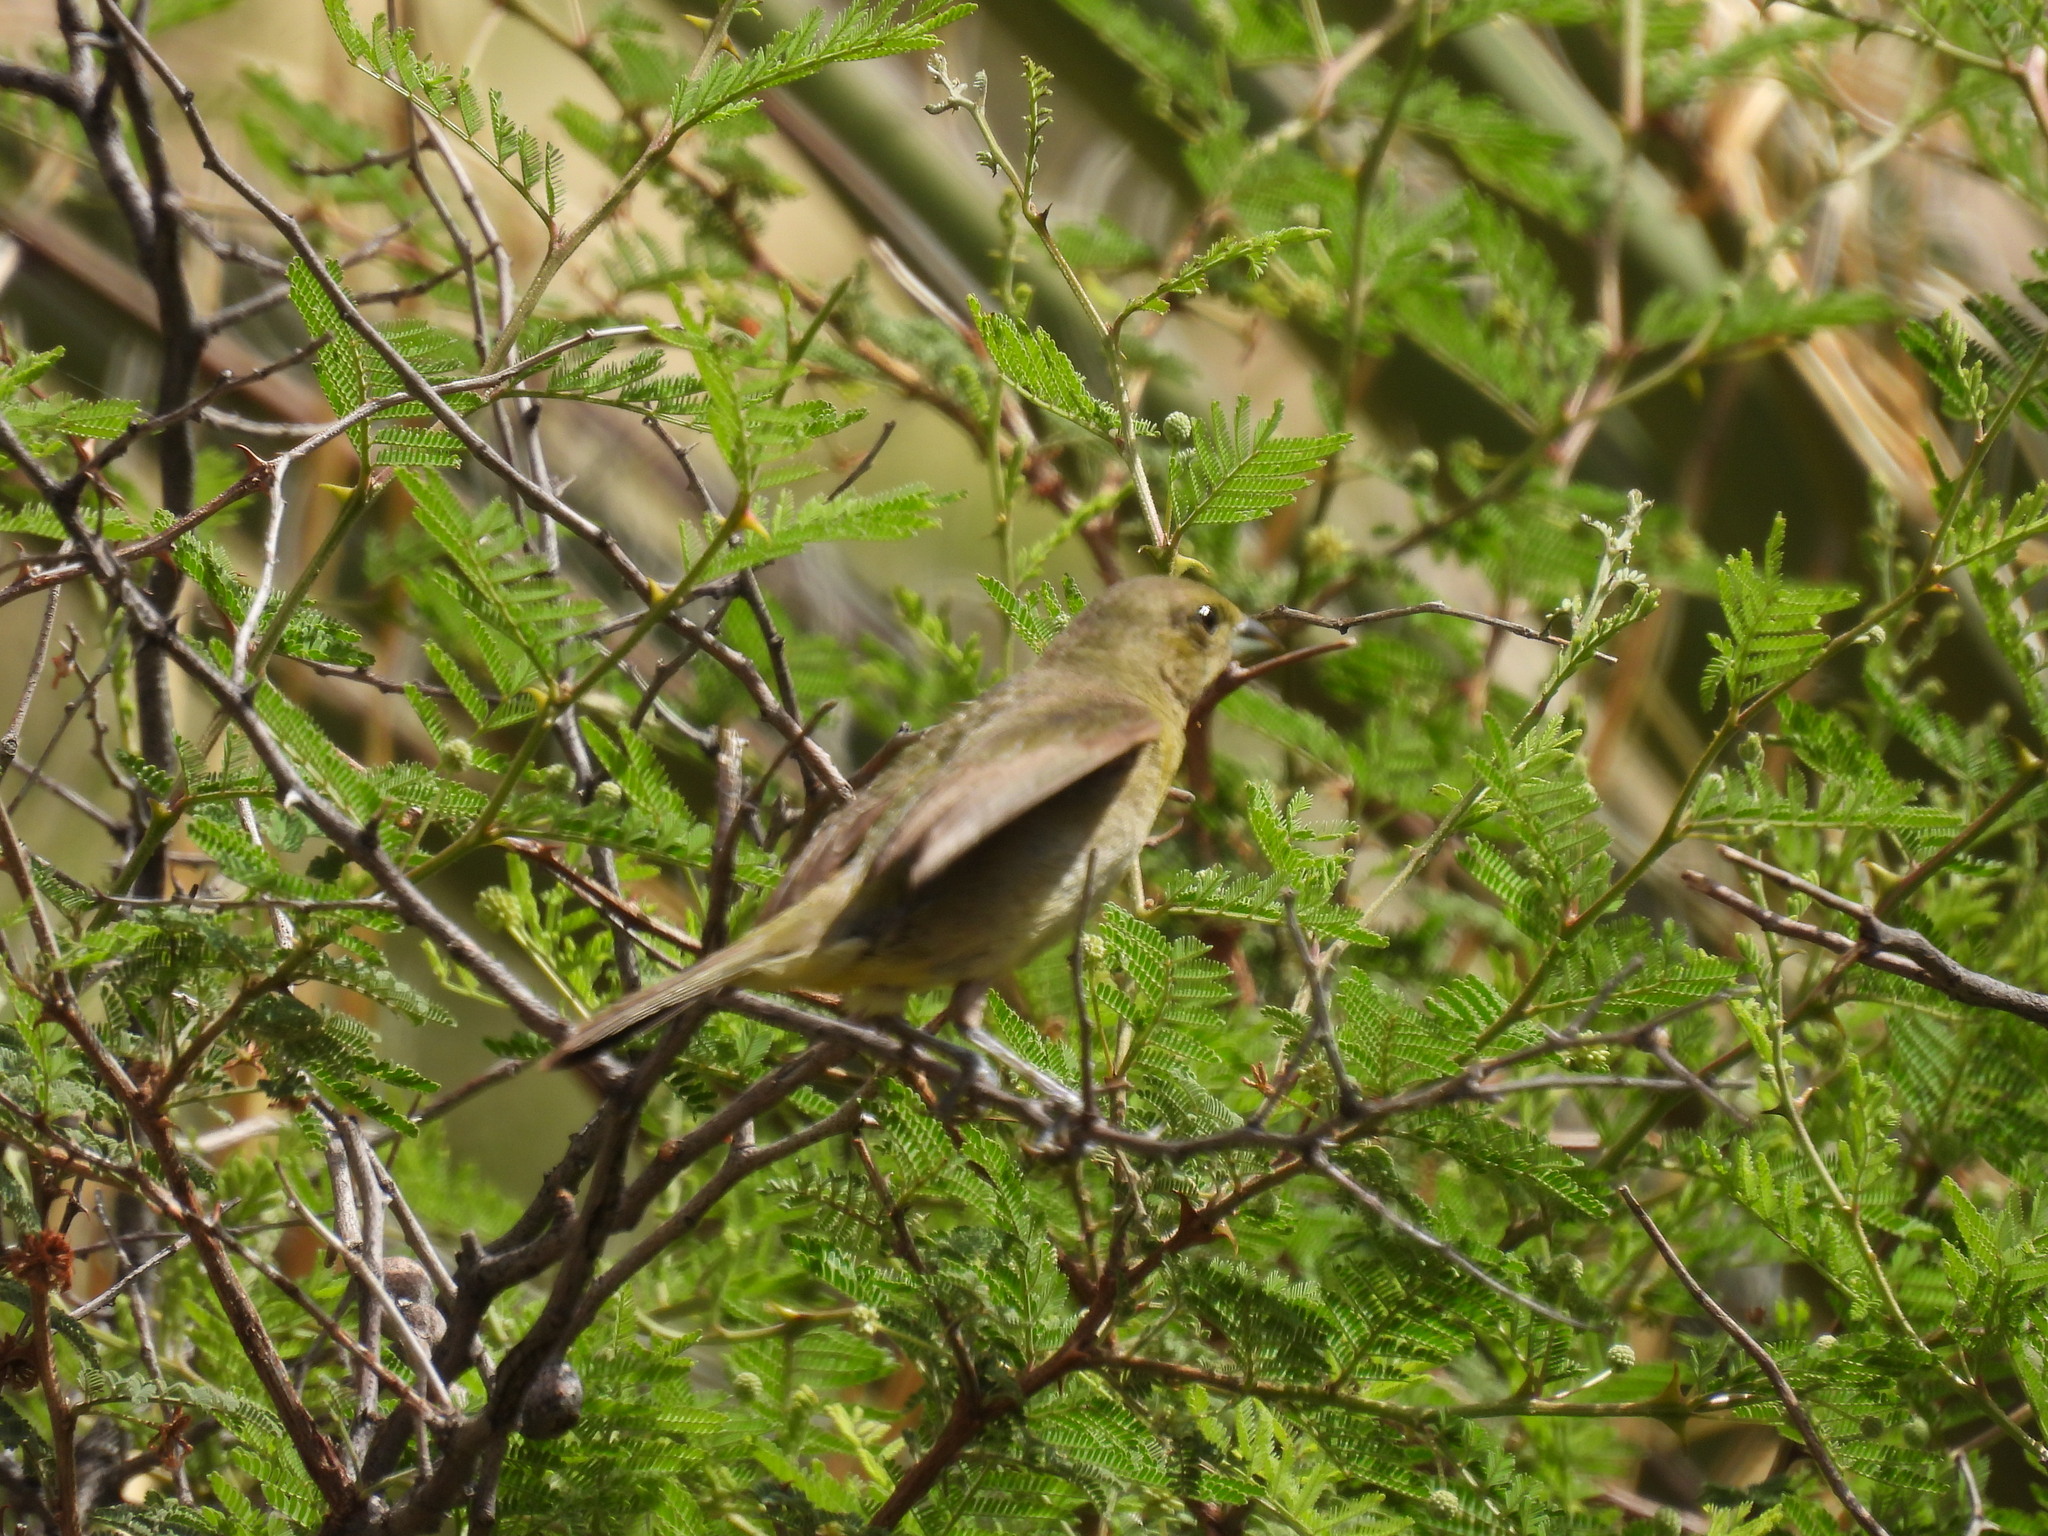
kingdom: Animalia
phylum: Chordata
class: Aves
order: Passeriformes
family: Cardinalidae
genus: Passerina
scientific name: Passerina ciris
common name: Painted bunting
